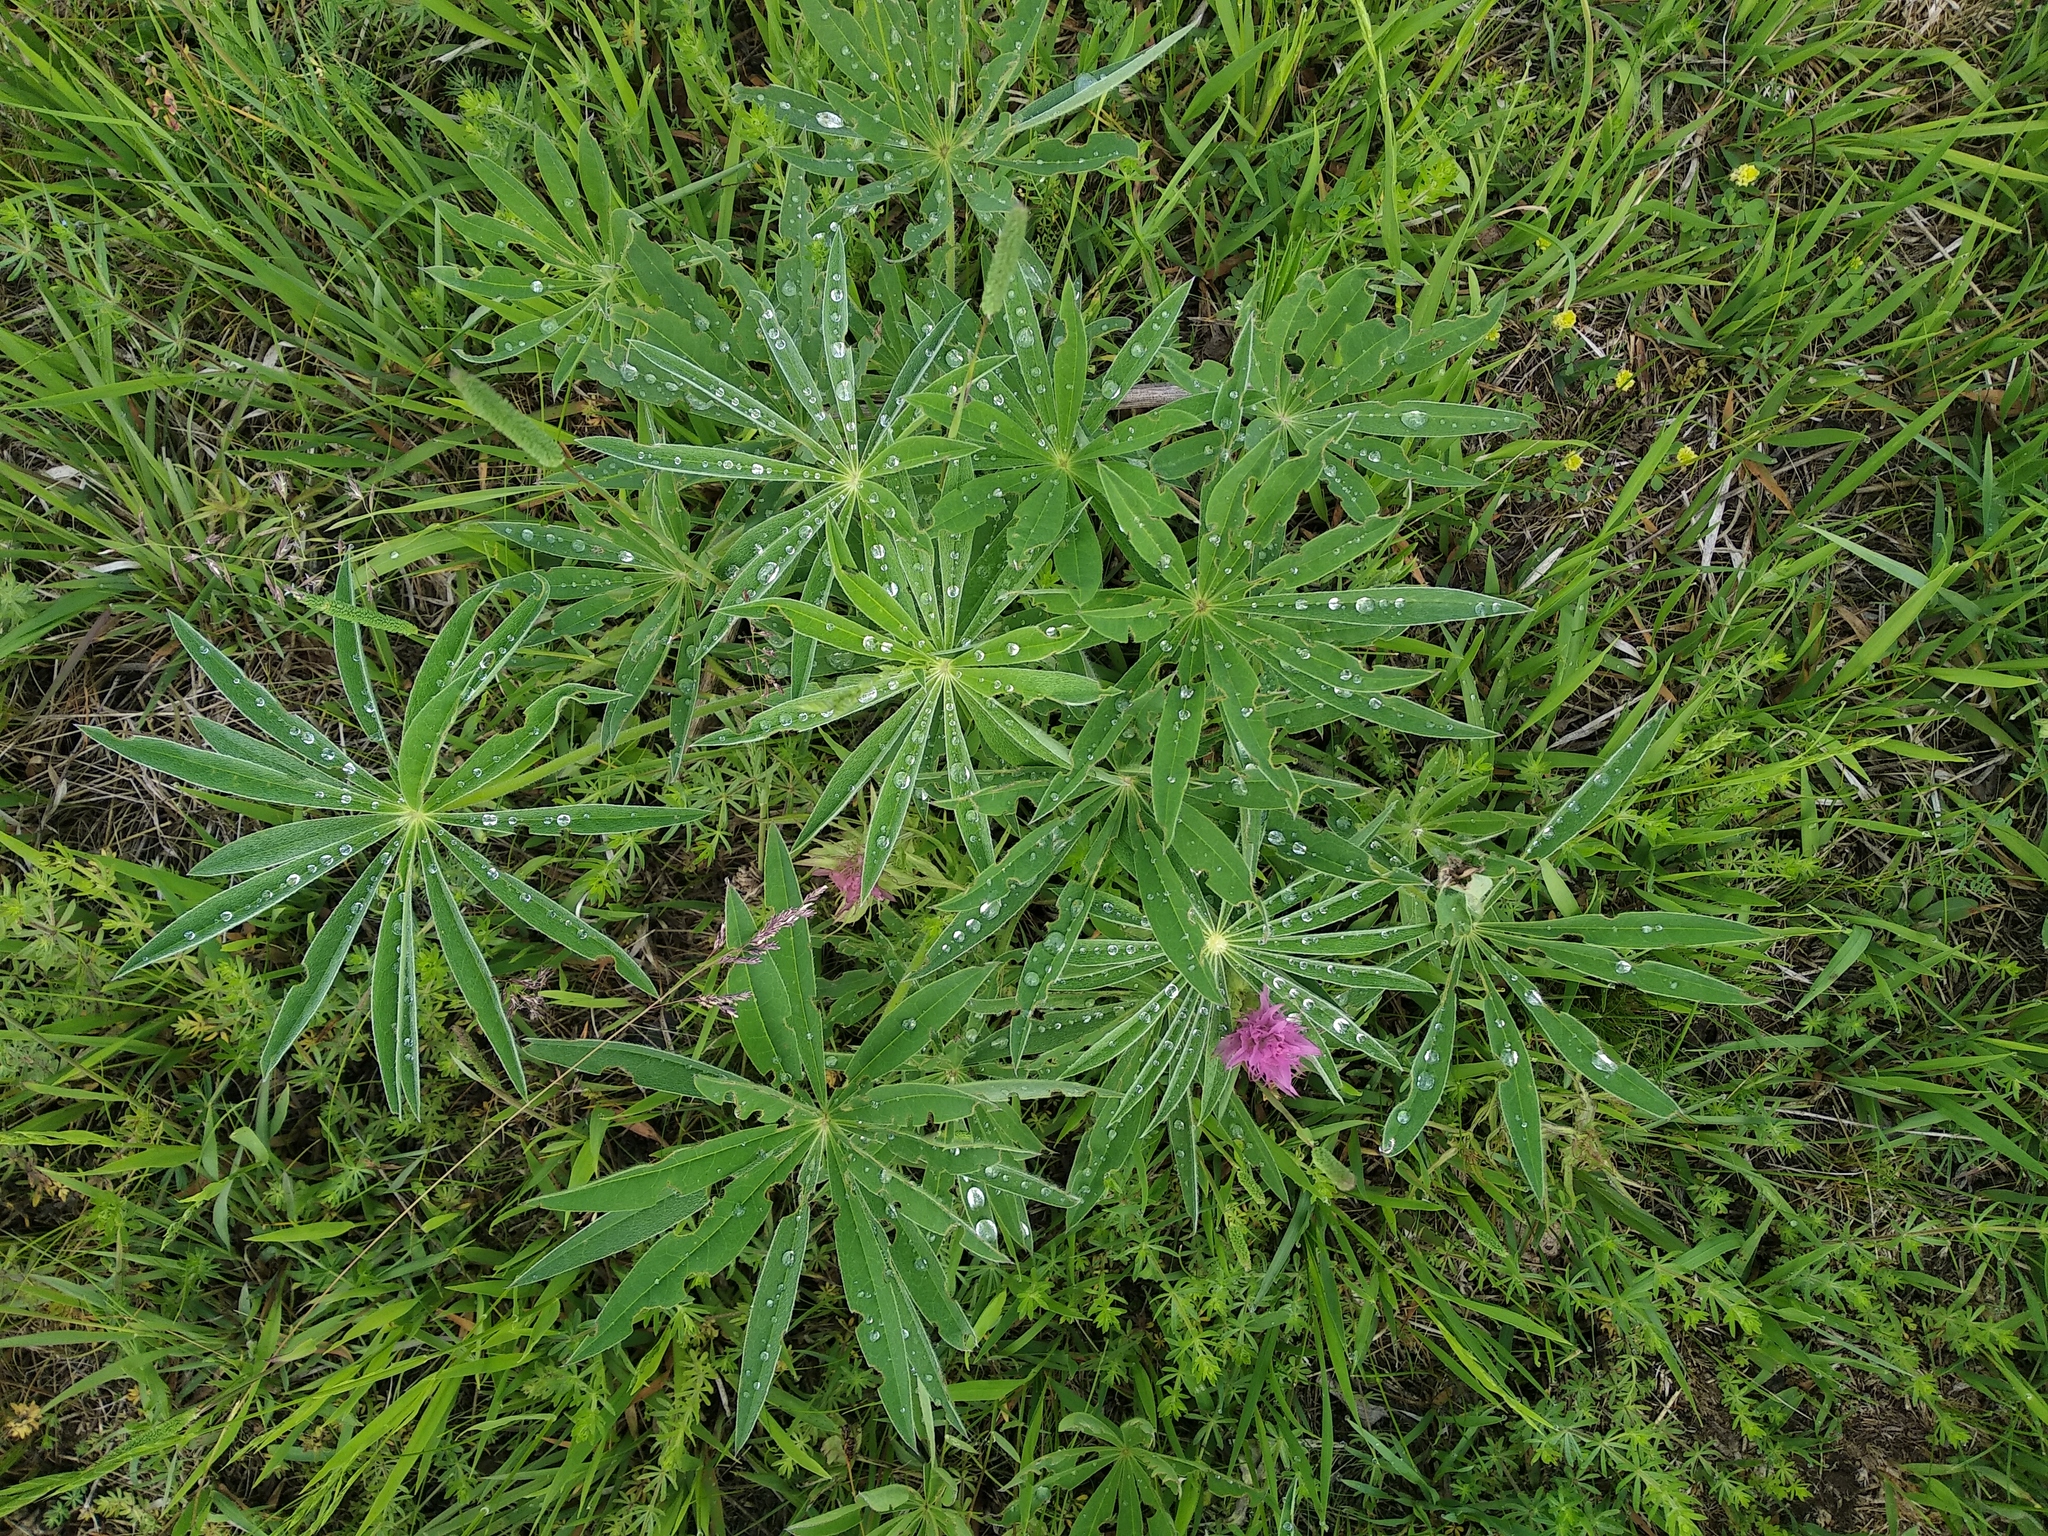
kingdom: Plantae
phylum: Tracheophyta
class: Magnoliopsida
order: Fabales
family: Fabaceae
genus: Lupinus
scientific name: Lupinus polyphyllus
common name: Garden lupin
